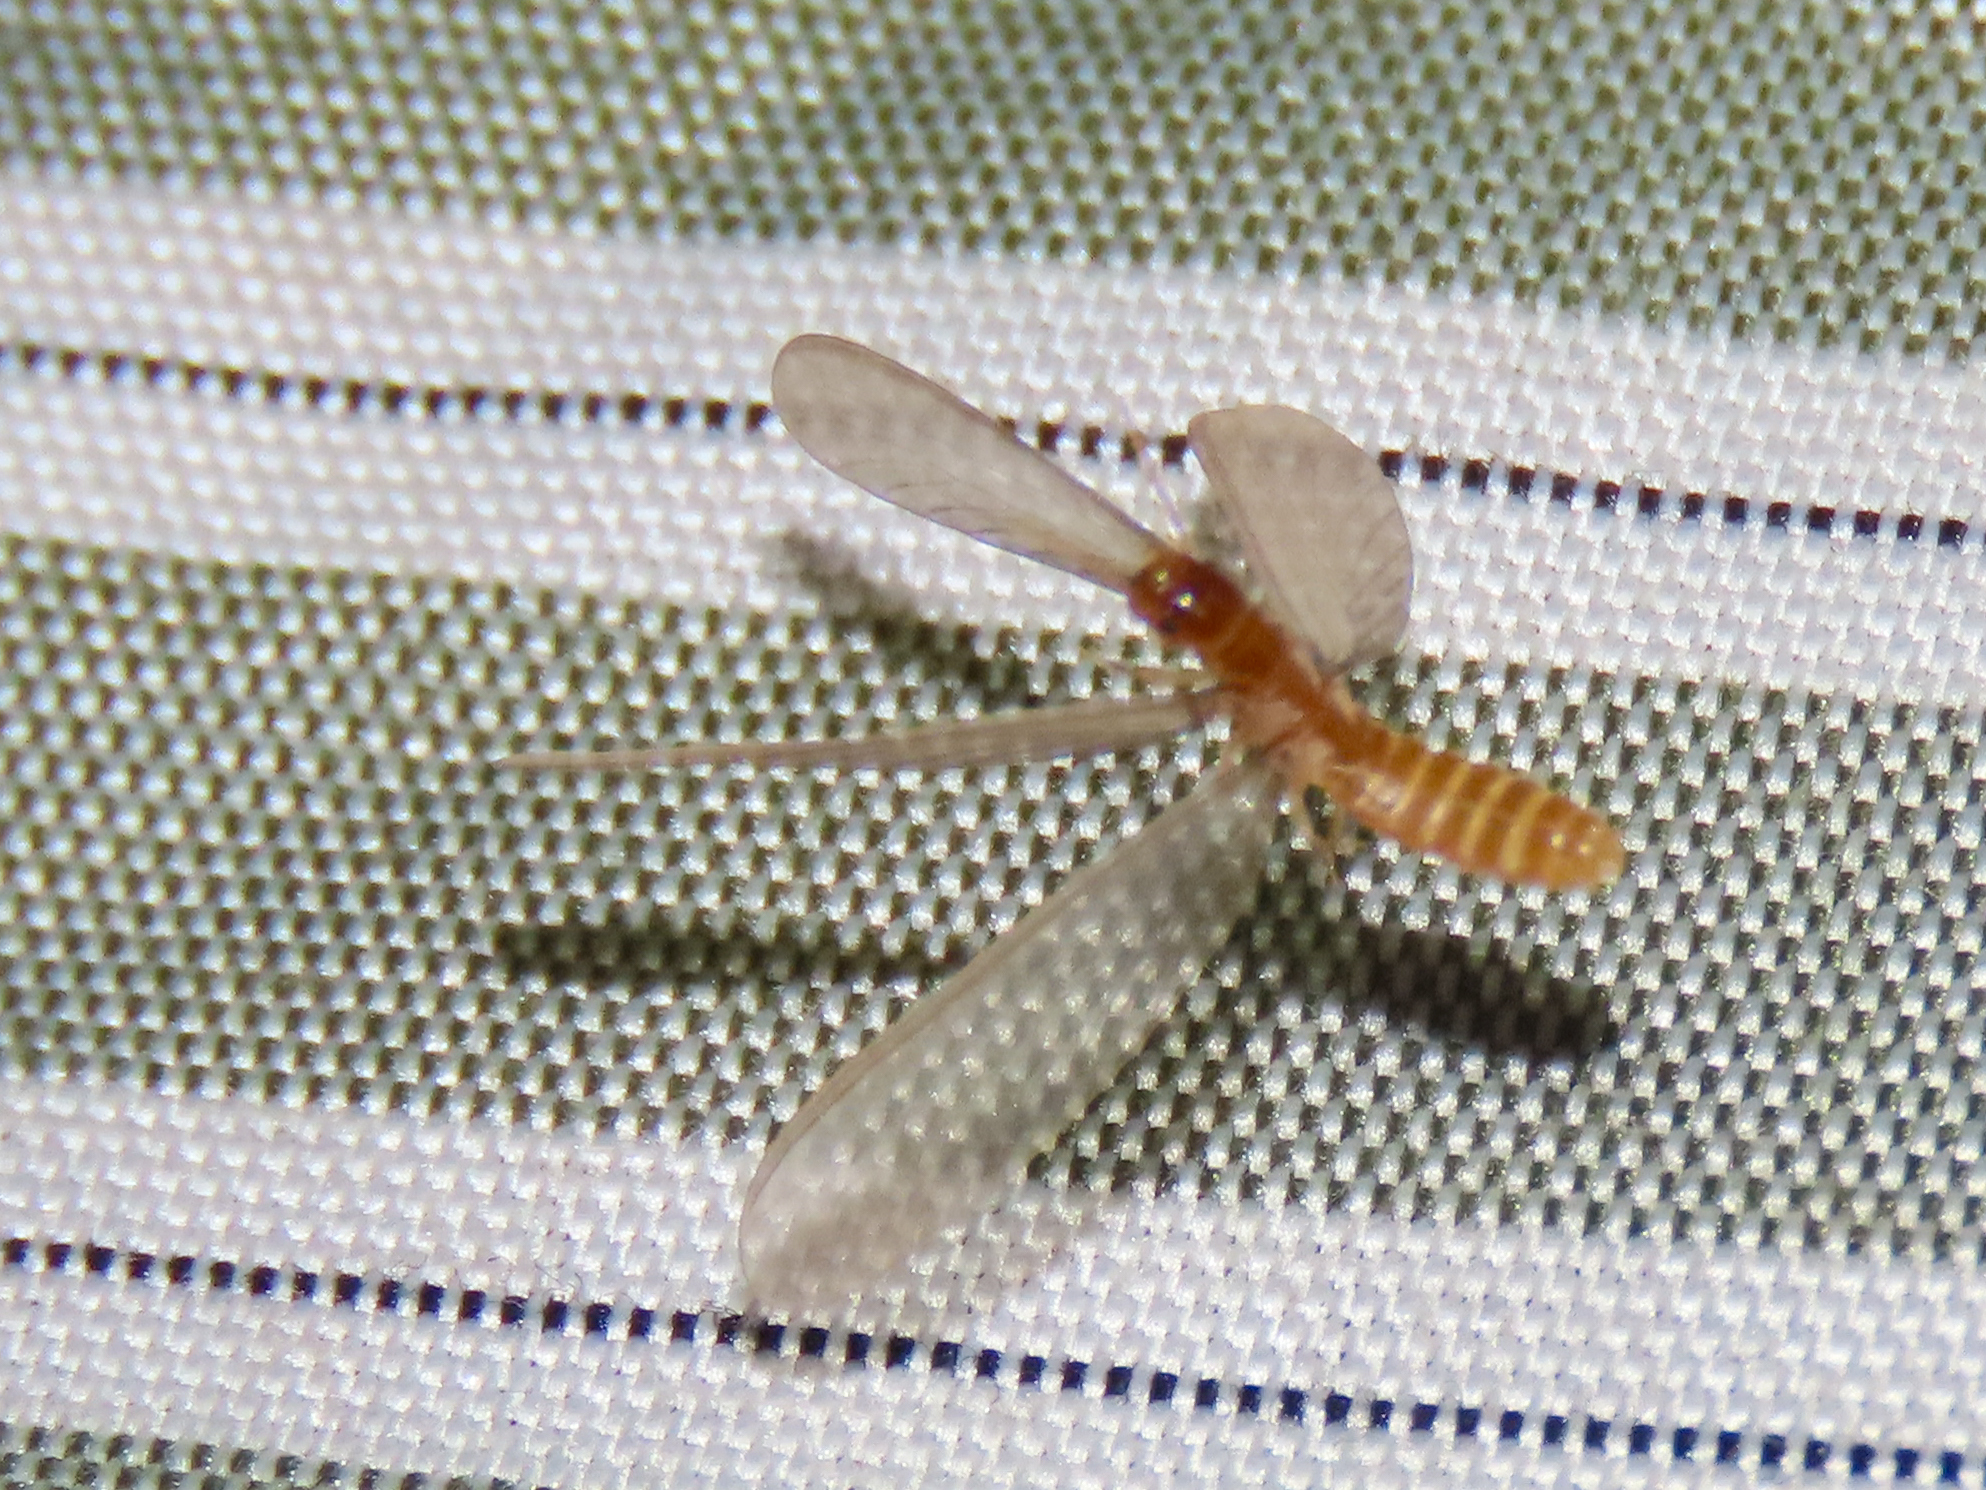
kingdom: Animalia
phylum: Arthropoda
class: Insecta
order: Blattodea
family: Rhinotermitidae
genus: Heterotermes
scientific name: Heterotermes aureus
